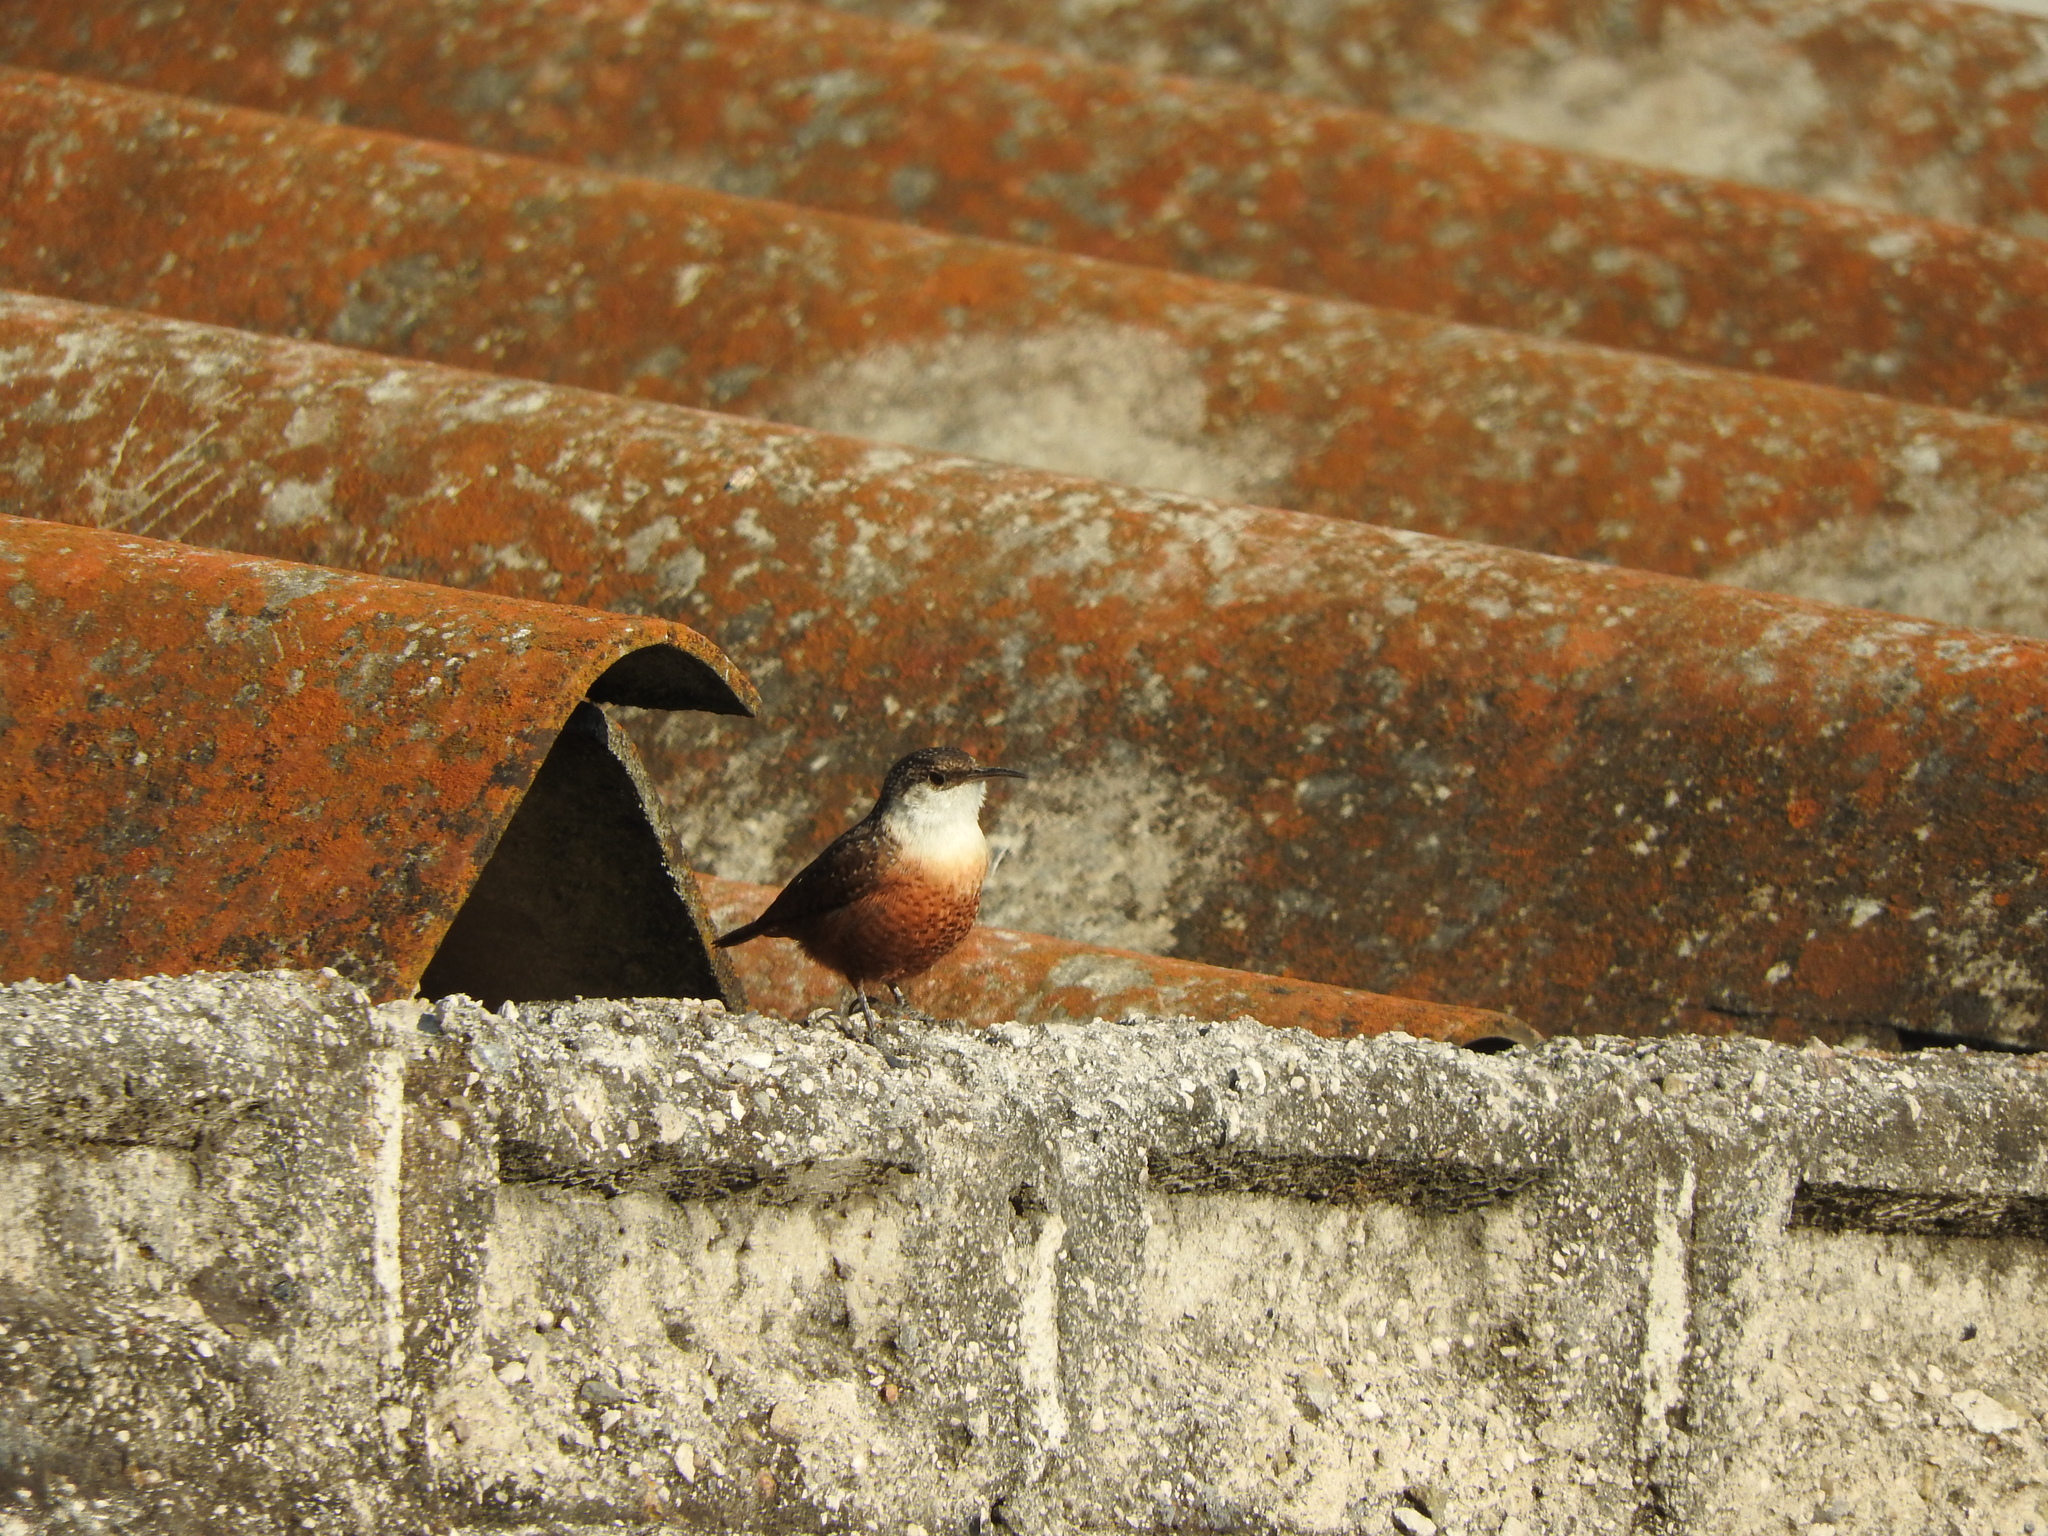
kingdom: Animalia
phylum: Chordata
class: Aves
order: Passeriformes
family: Troglodytidae
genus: Catherpes
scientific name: Catherpes mexicanus
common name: Canyon wren
